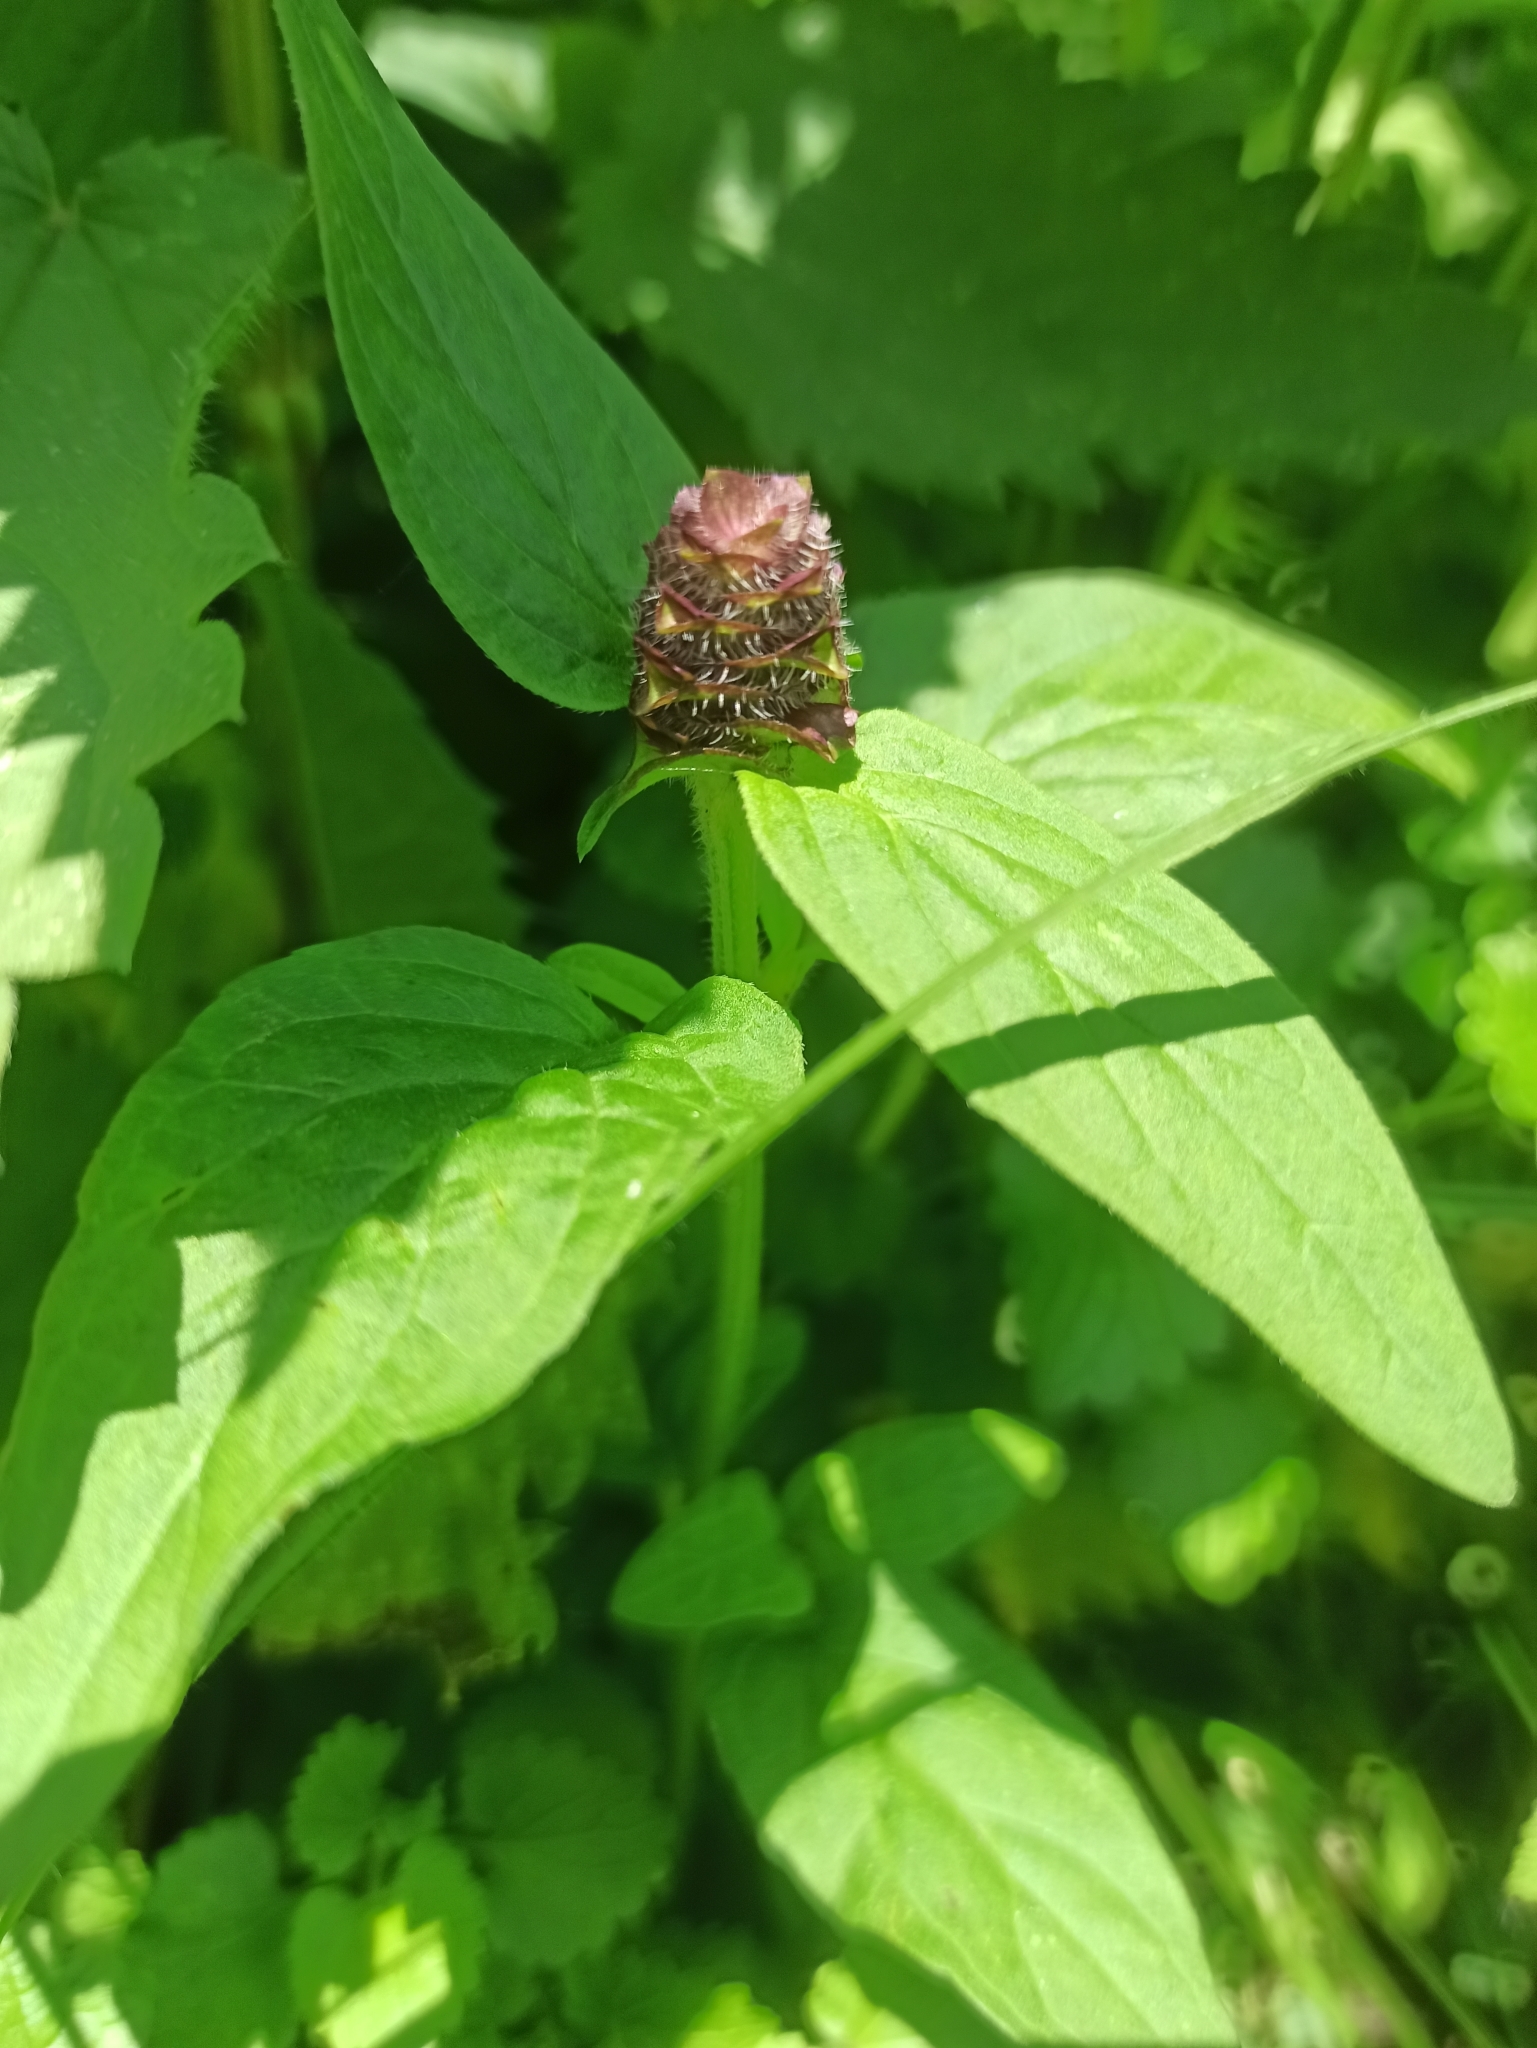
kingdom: Plantae
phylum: Tracheophyta
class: Magnoliopsida
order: Lamiales
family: Lamiaceae
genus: Prunella
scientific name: Prunella vulgaris
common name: Heal-all
